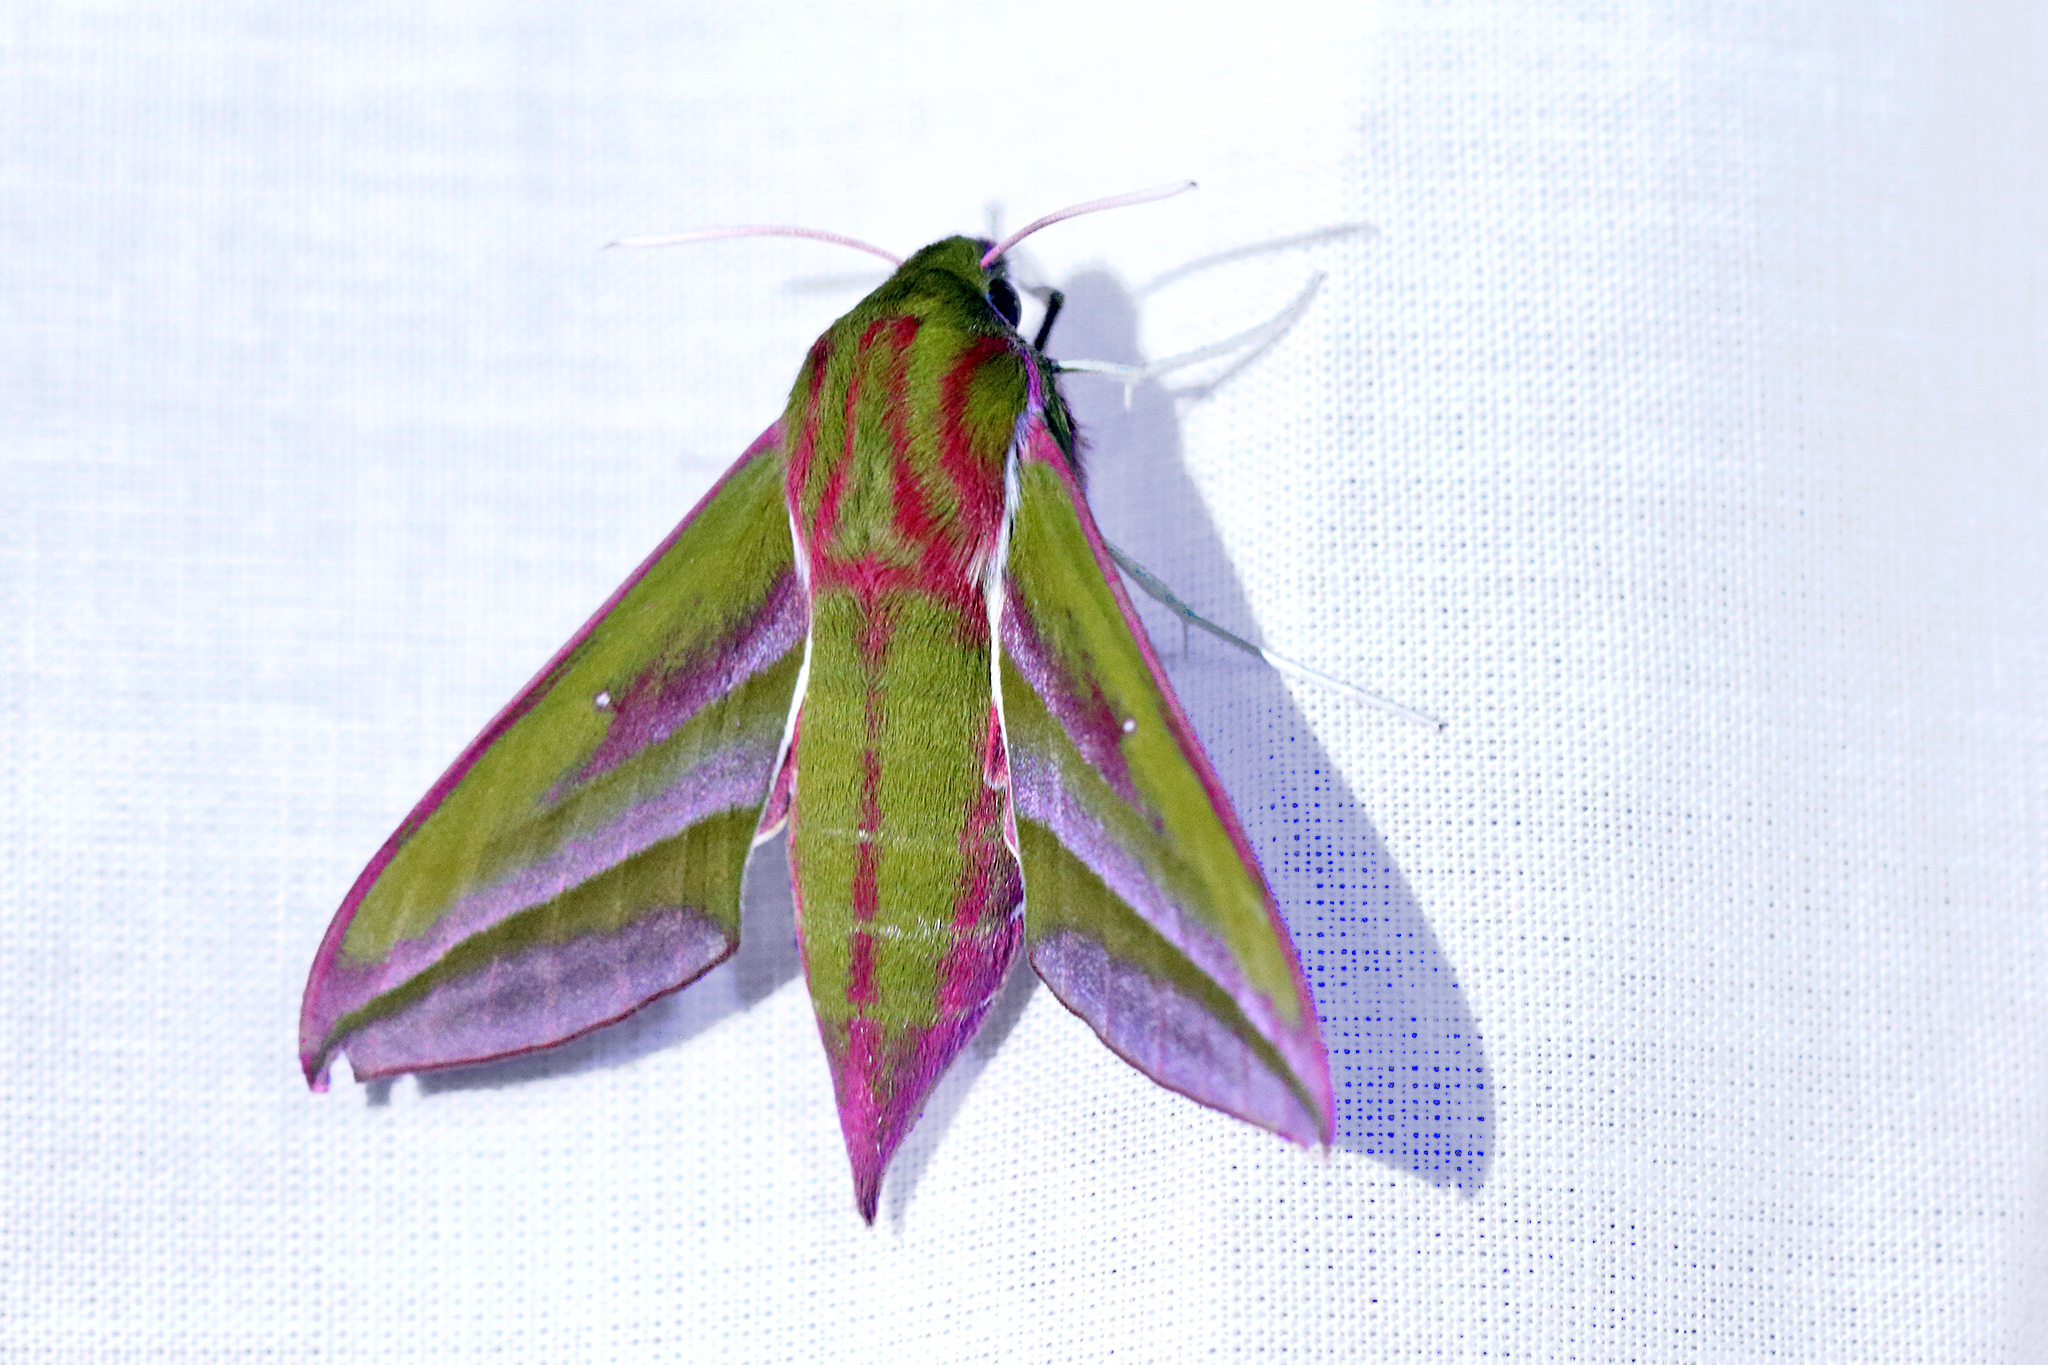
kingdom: Animalia
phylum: Arthropoda
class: Insecta
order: Lepidoptera
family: Sphingidae
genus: Deilephila
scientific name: Deilephila elpenor
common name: Elephant hawk-moth
